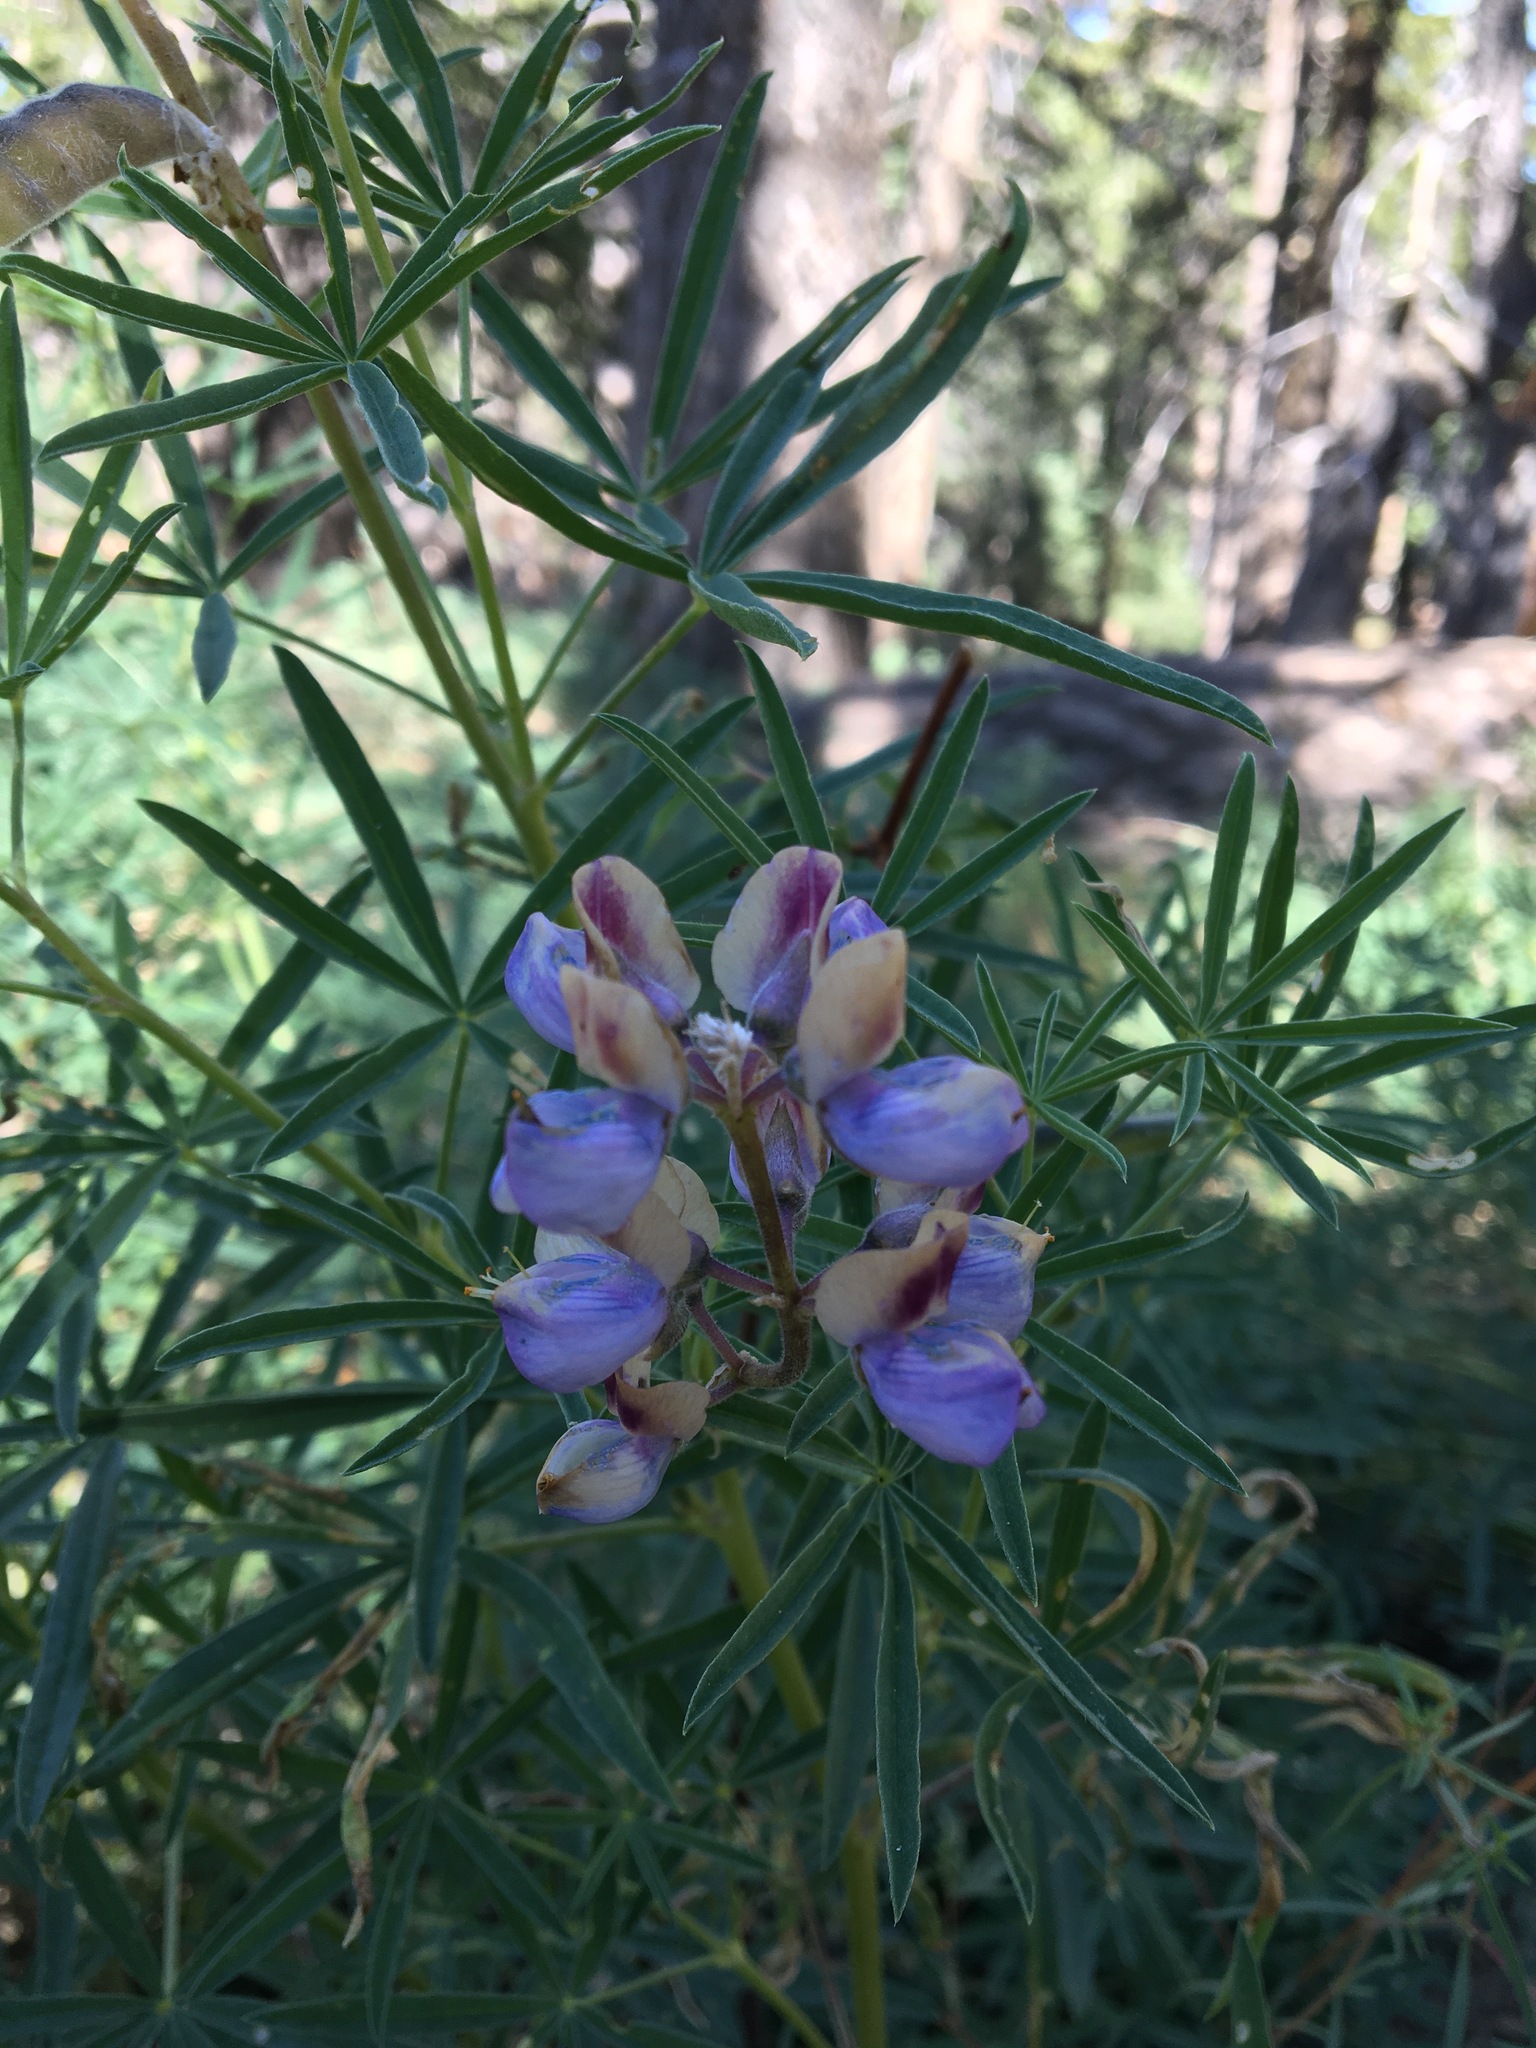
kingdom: Plantae
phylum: Tracheophyta
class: Magnoliopsida
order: Fabales
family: Fabaceae
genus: Lupinus
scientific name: Lupinus hyacinthinus
